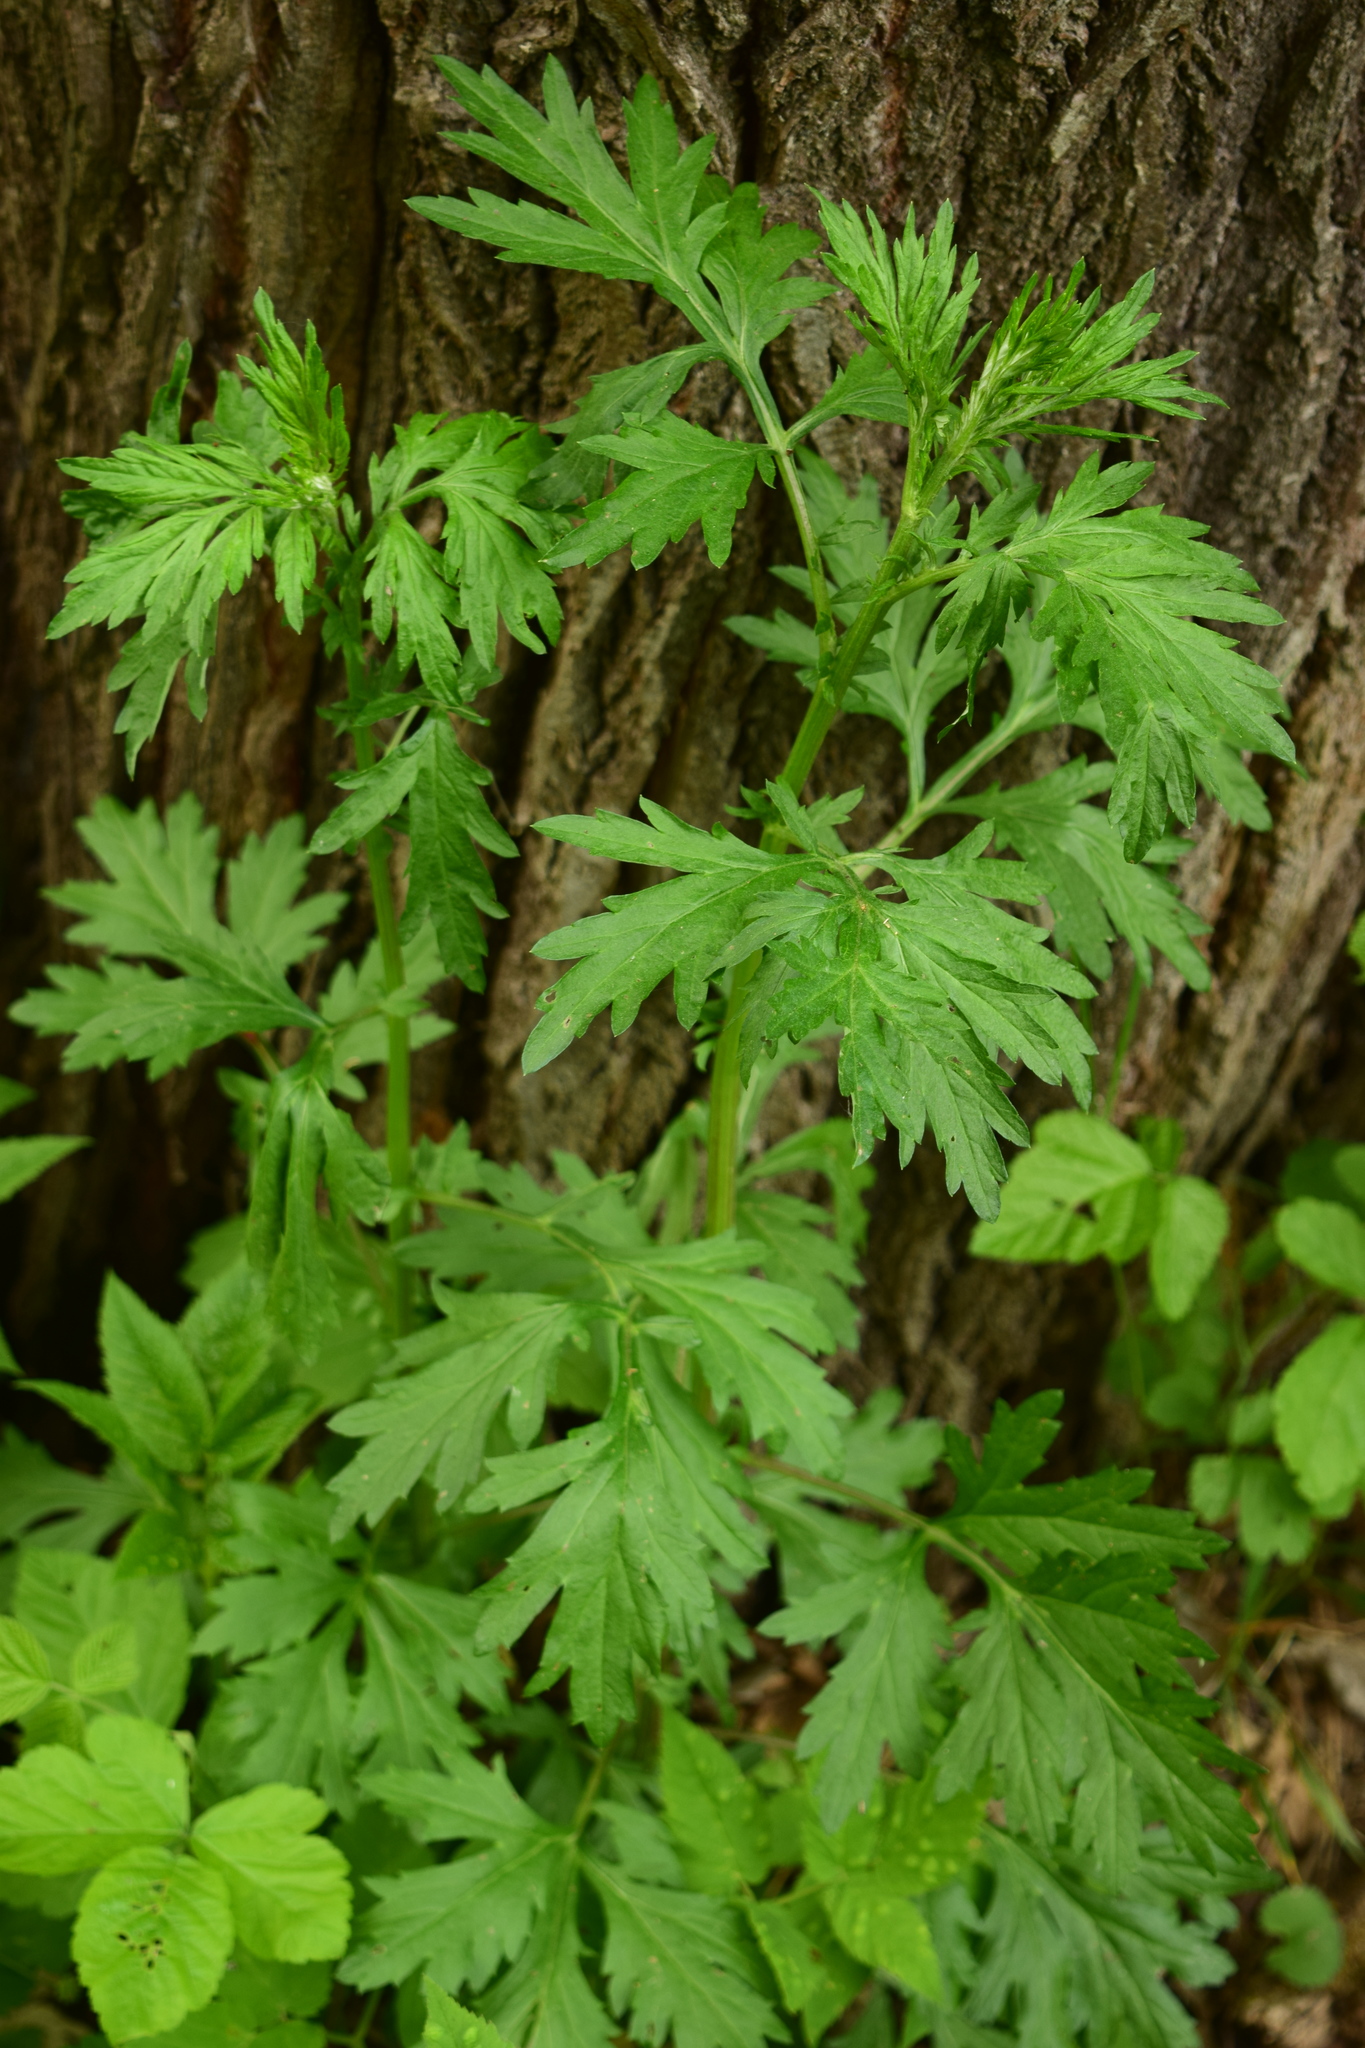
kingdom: Plantae
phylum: Tracheophyta
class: Magnoliopsida
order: Asterales
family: Asteraceae
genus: Artemisia
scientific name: Artemisia vulgaris
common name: Mugwort
